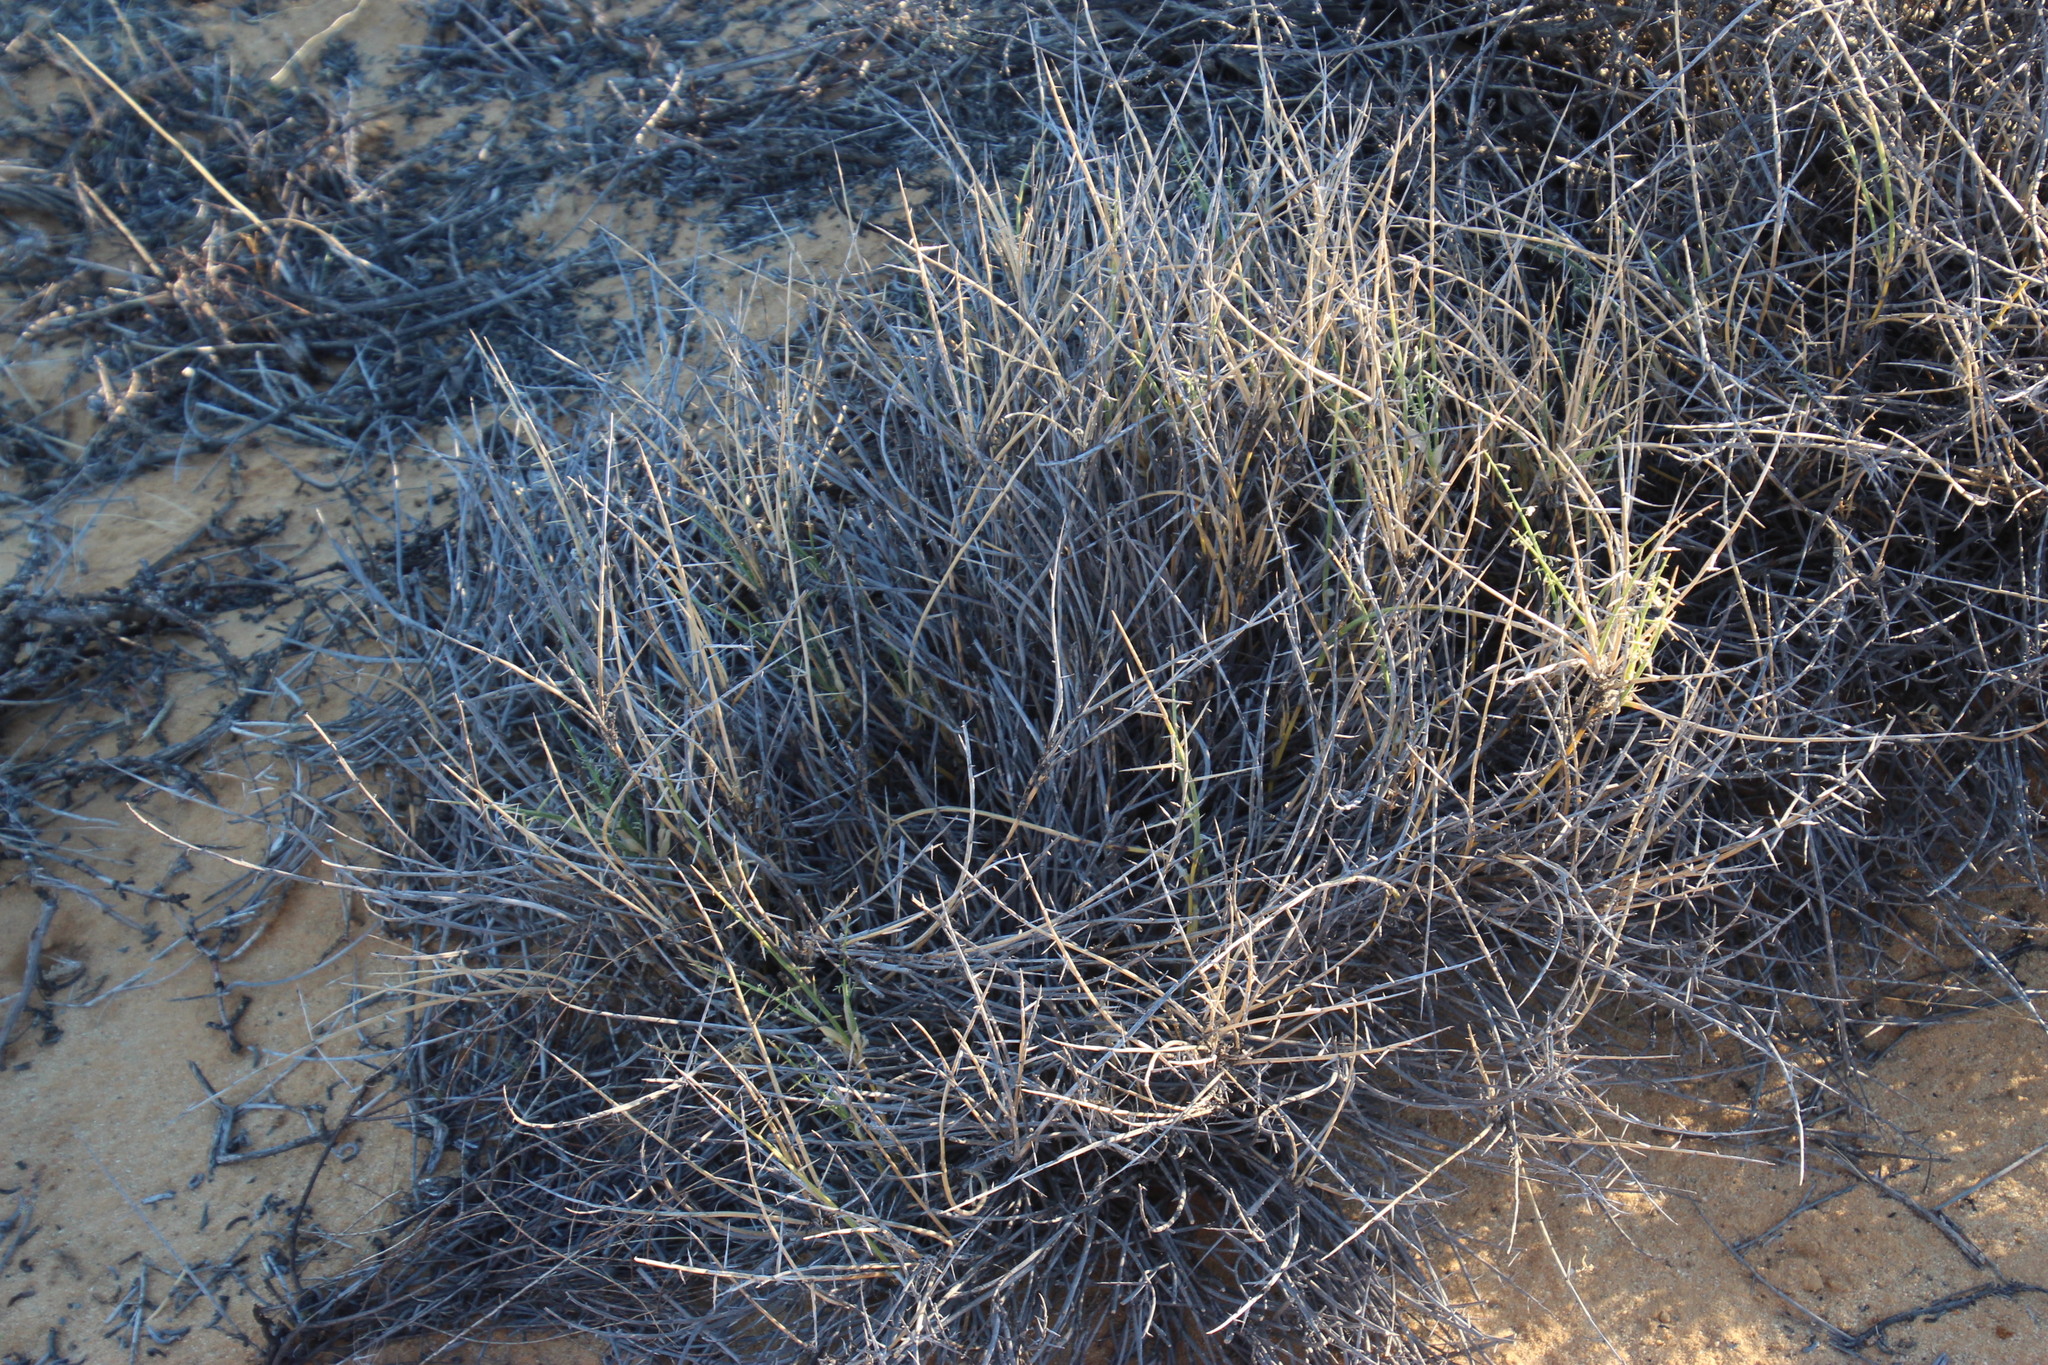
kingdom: Plantae
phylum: Tracheophyta
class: Liliopsida
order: Poales
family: Poaceae
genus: Cladoraphis
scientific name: Cladoraphis spinosa
